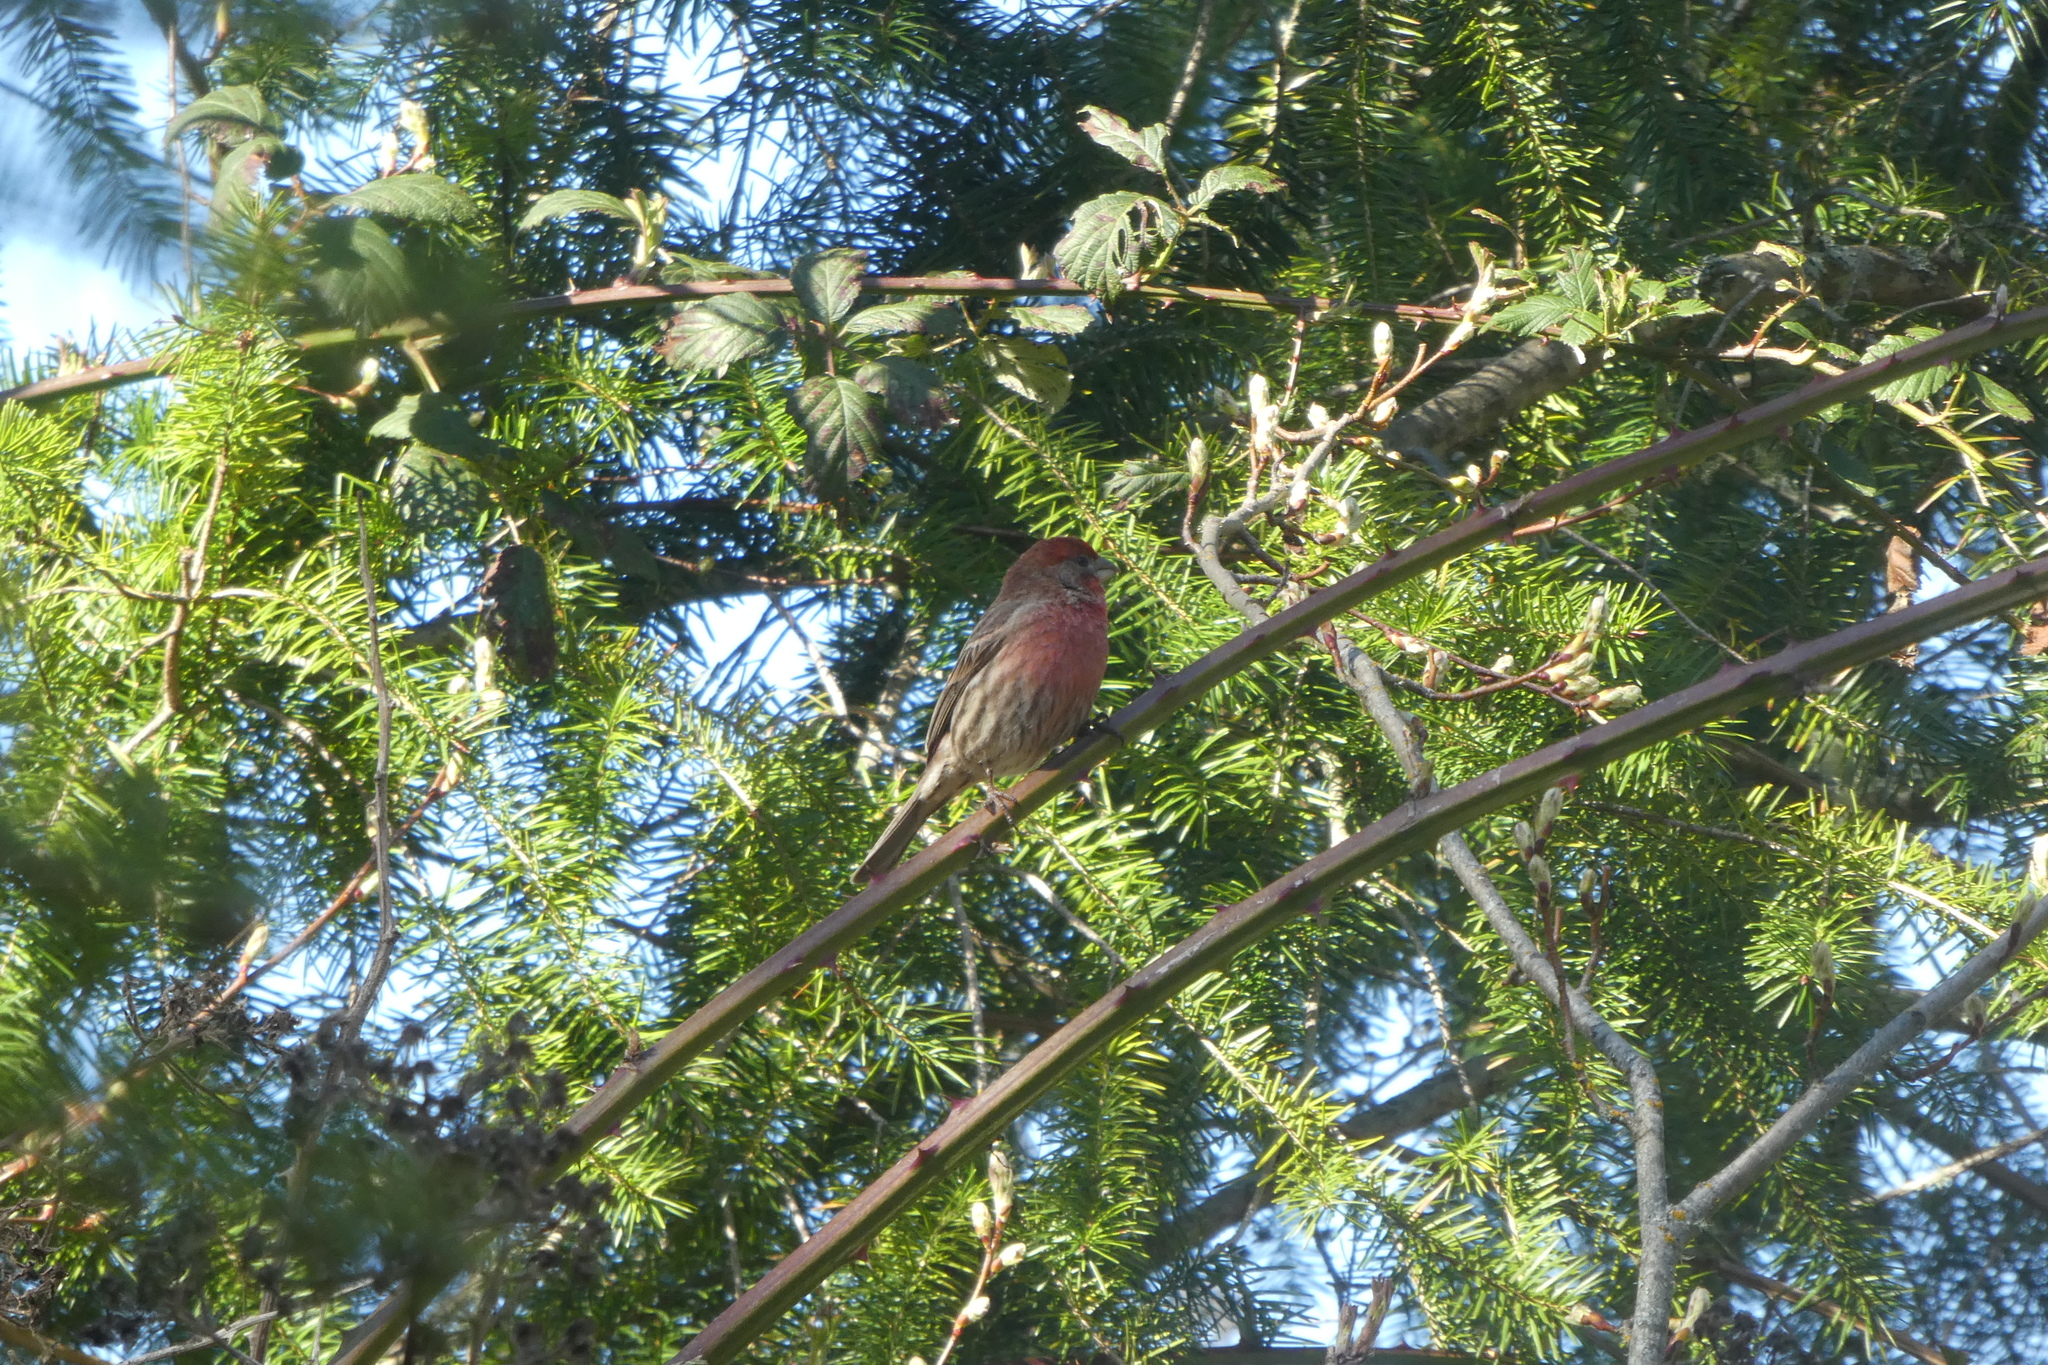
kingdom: Animalia
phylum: Chordata
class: Aves
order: Passeriformes
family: Fringillidae
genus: Haemorhous
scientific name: Haemorhous mexicanus
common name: House finch
